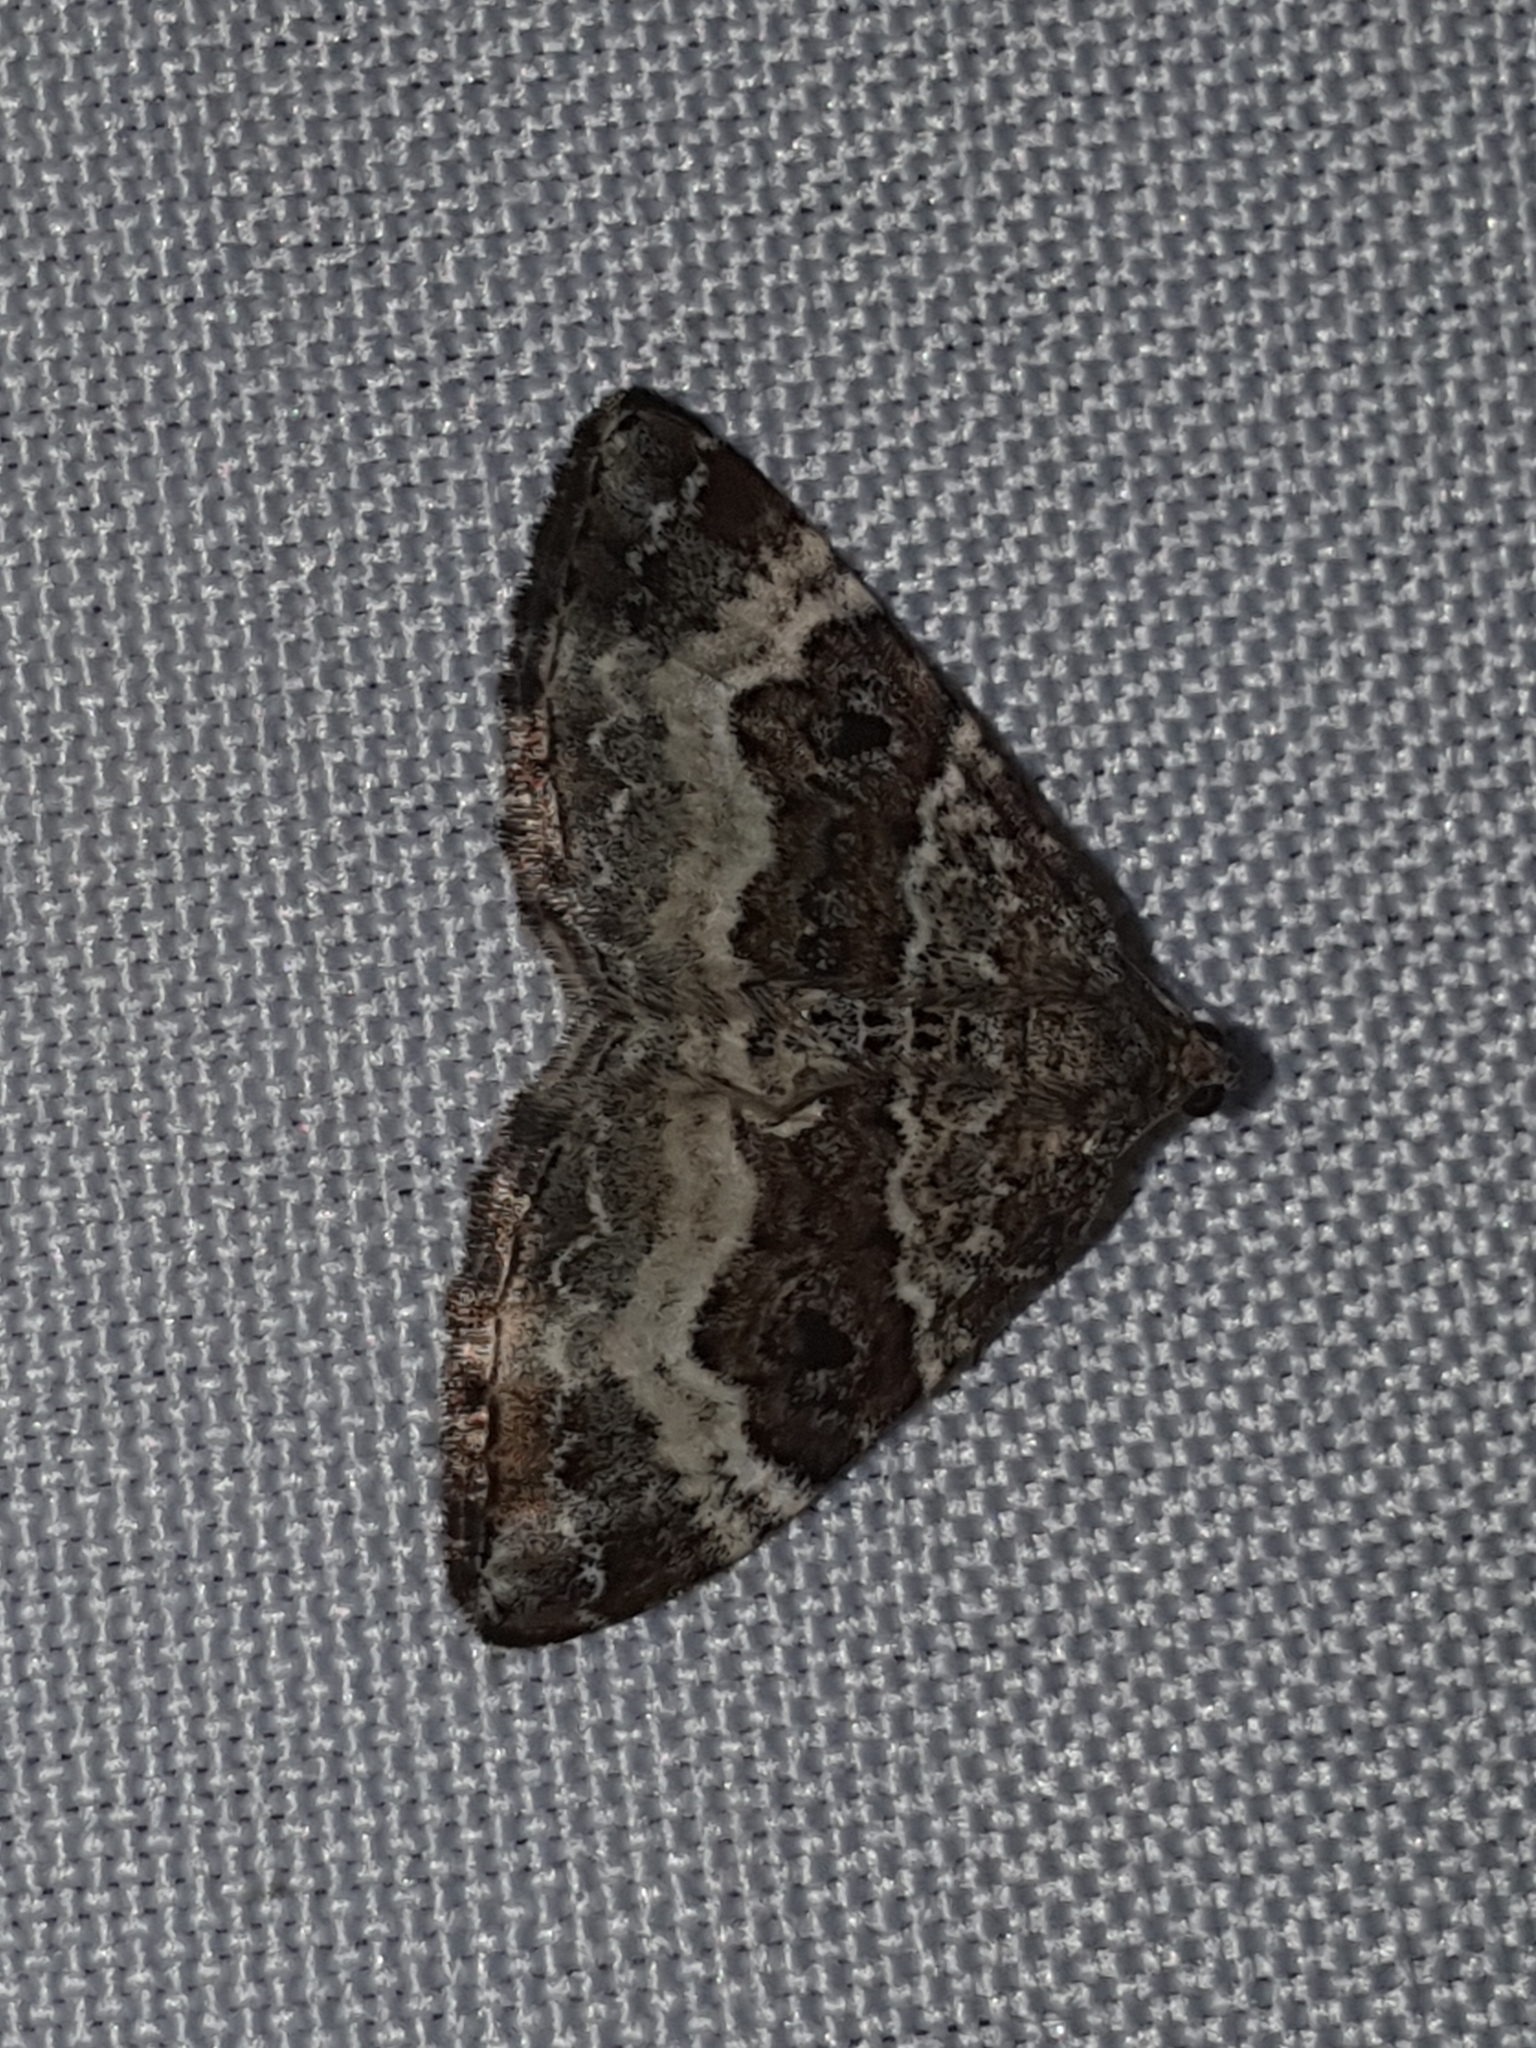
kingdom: Animalia
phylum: Arthropoda
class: Insecta
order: Lepidoptera
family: Geometridae
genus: Epirrhoe
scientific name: Epirrhoe alternata
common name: Common carpet
